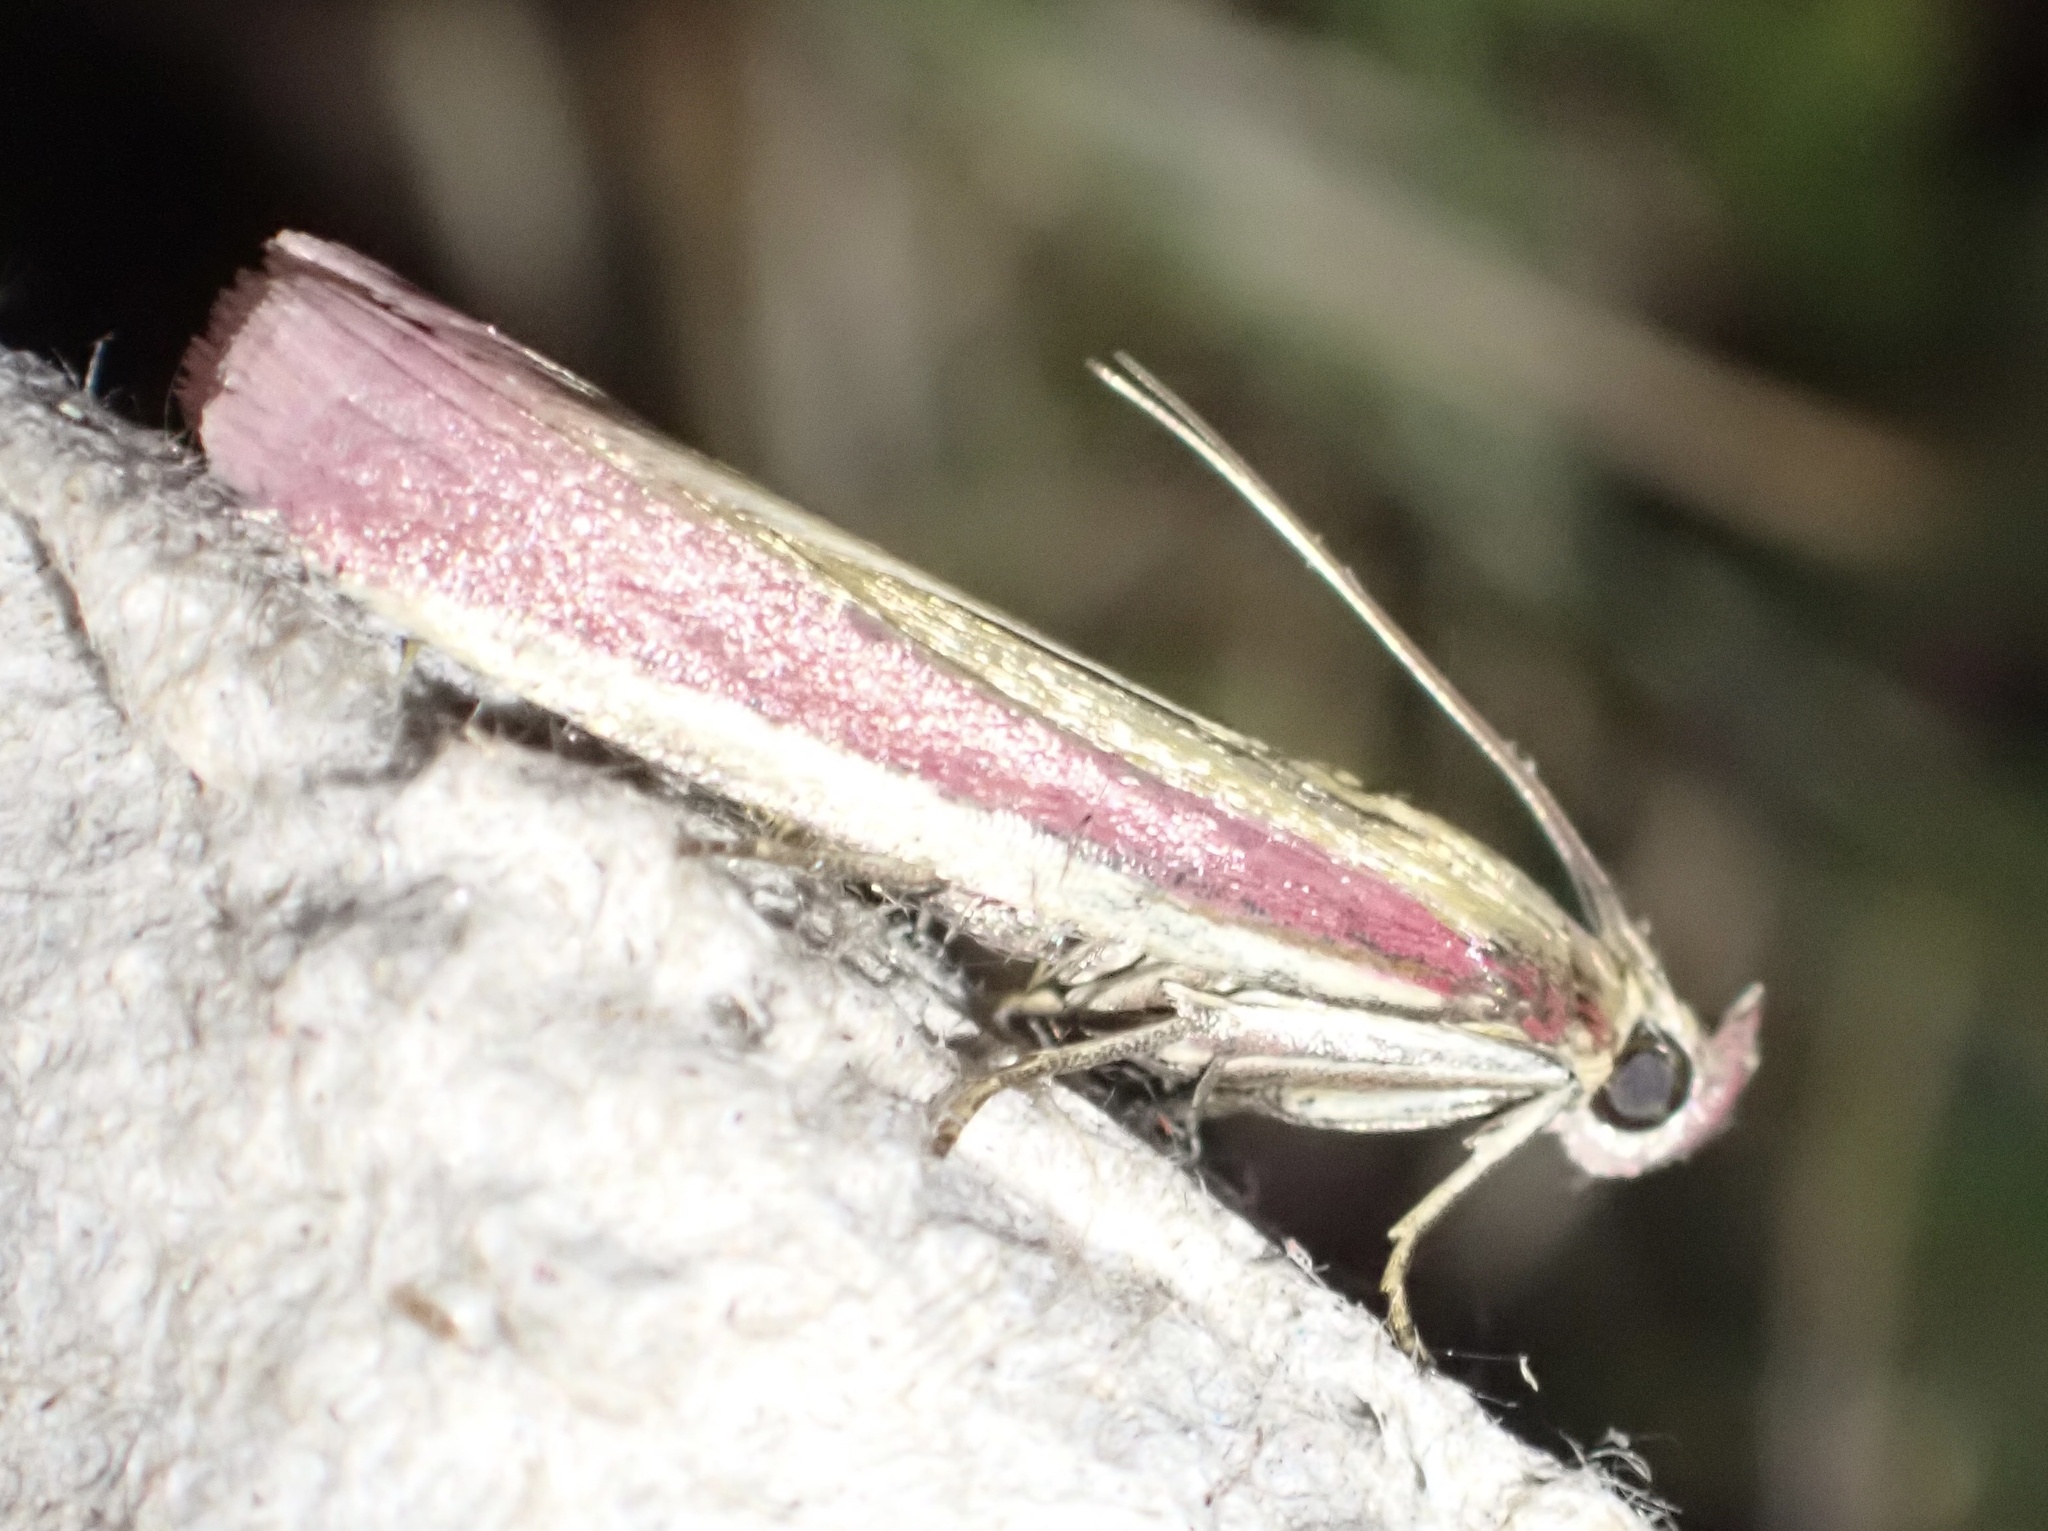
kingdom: Animalia
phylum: Arthropoda
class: Insecta
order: Lepidoptera
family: Pyralidae
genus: Oncocera
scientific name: Oncocera semirubella
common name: Rosy-striped knot-horn
